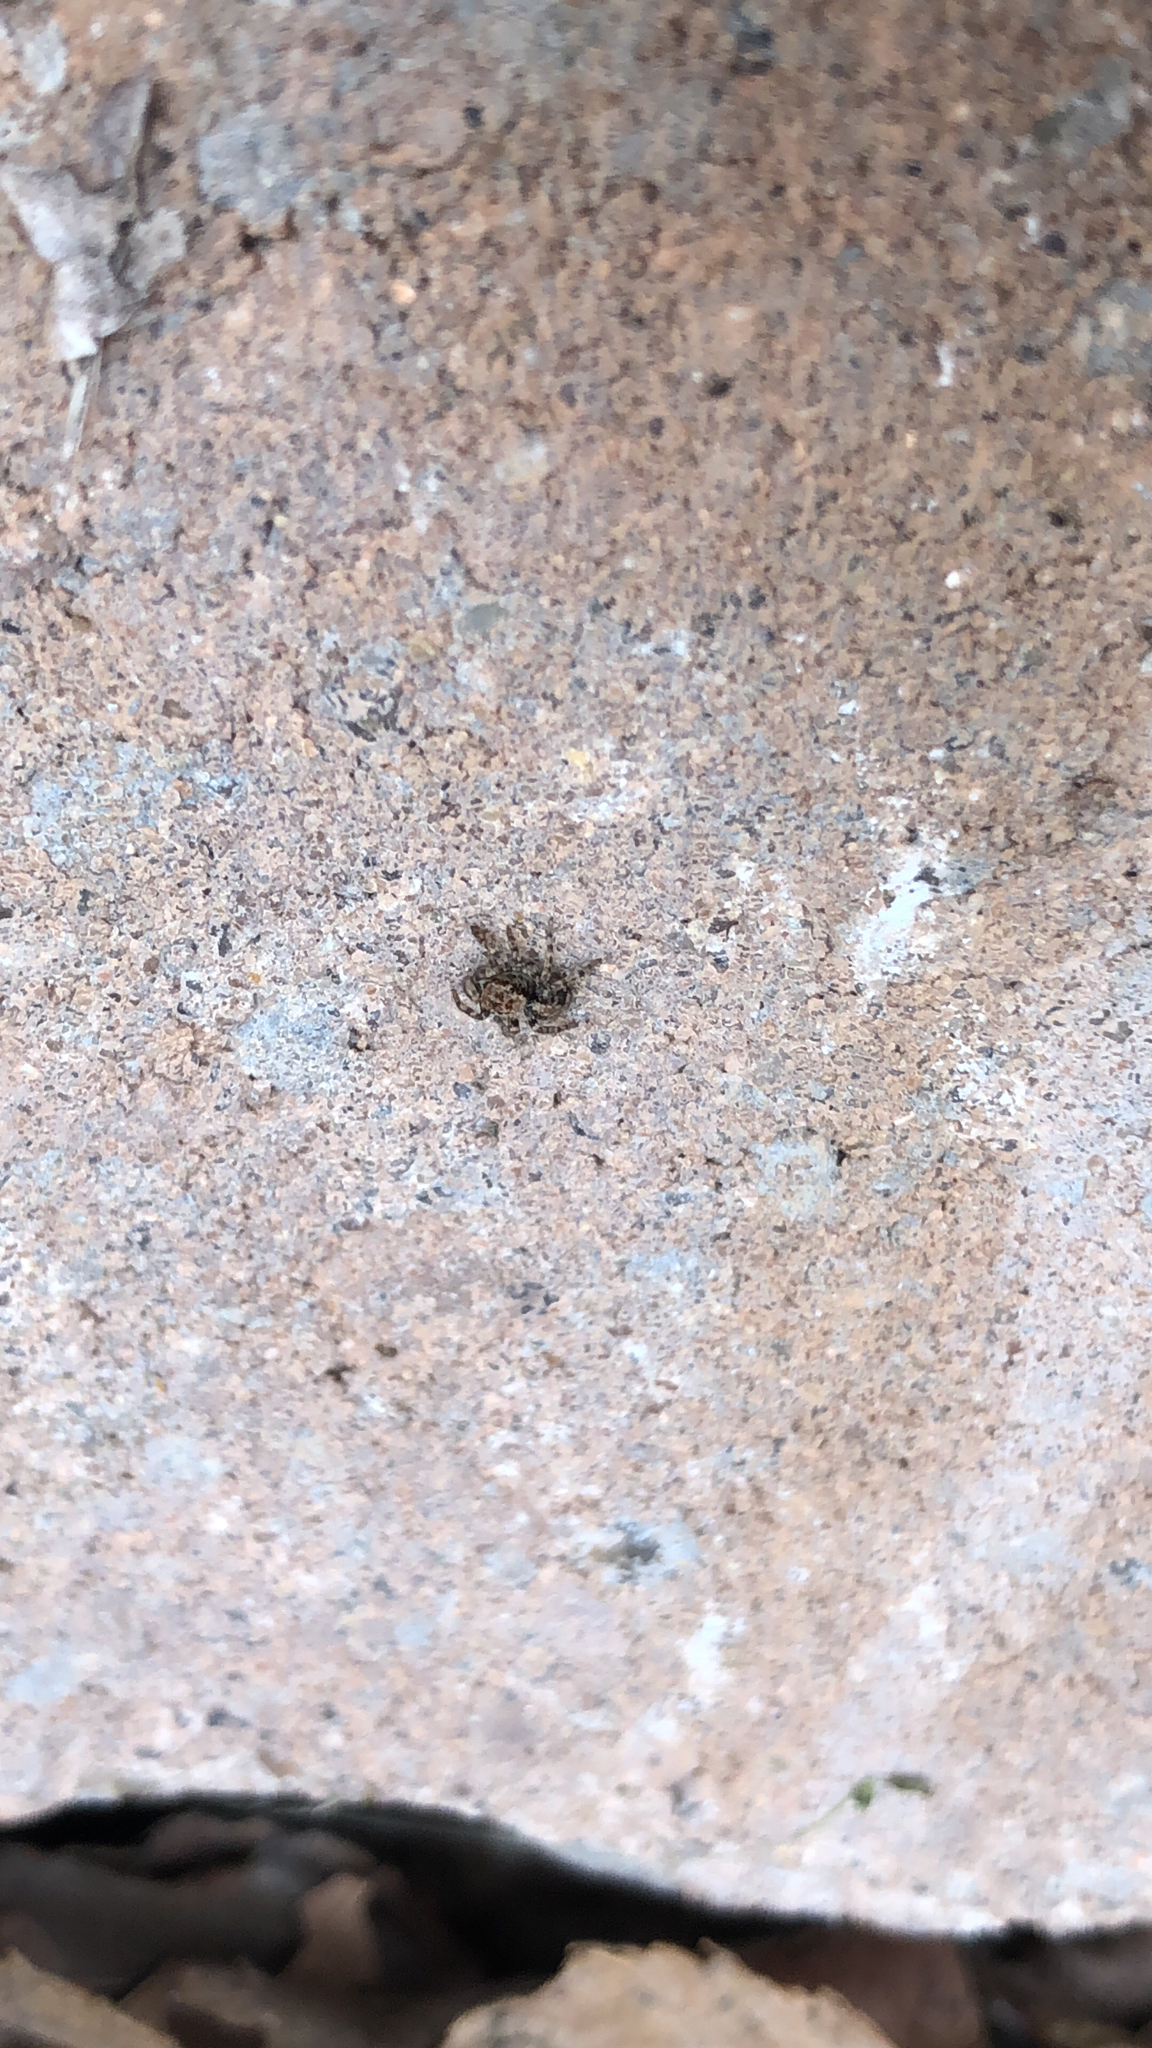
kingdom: Animalia
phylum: Arthropoda
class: Arachnida
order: Araneae
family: Salticidae
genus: Naphrys
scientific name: Naphrys pulex
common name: Flea jumping spider
